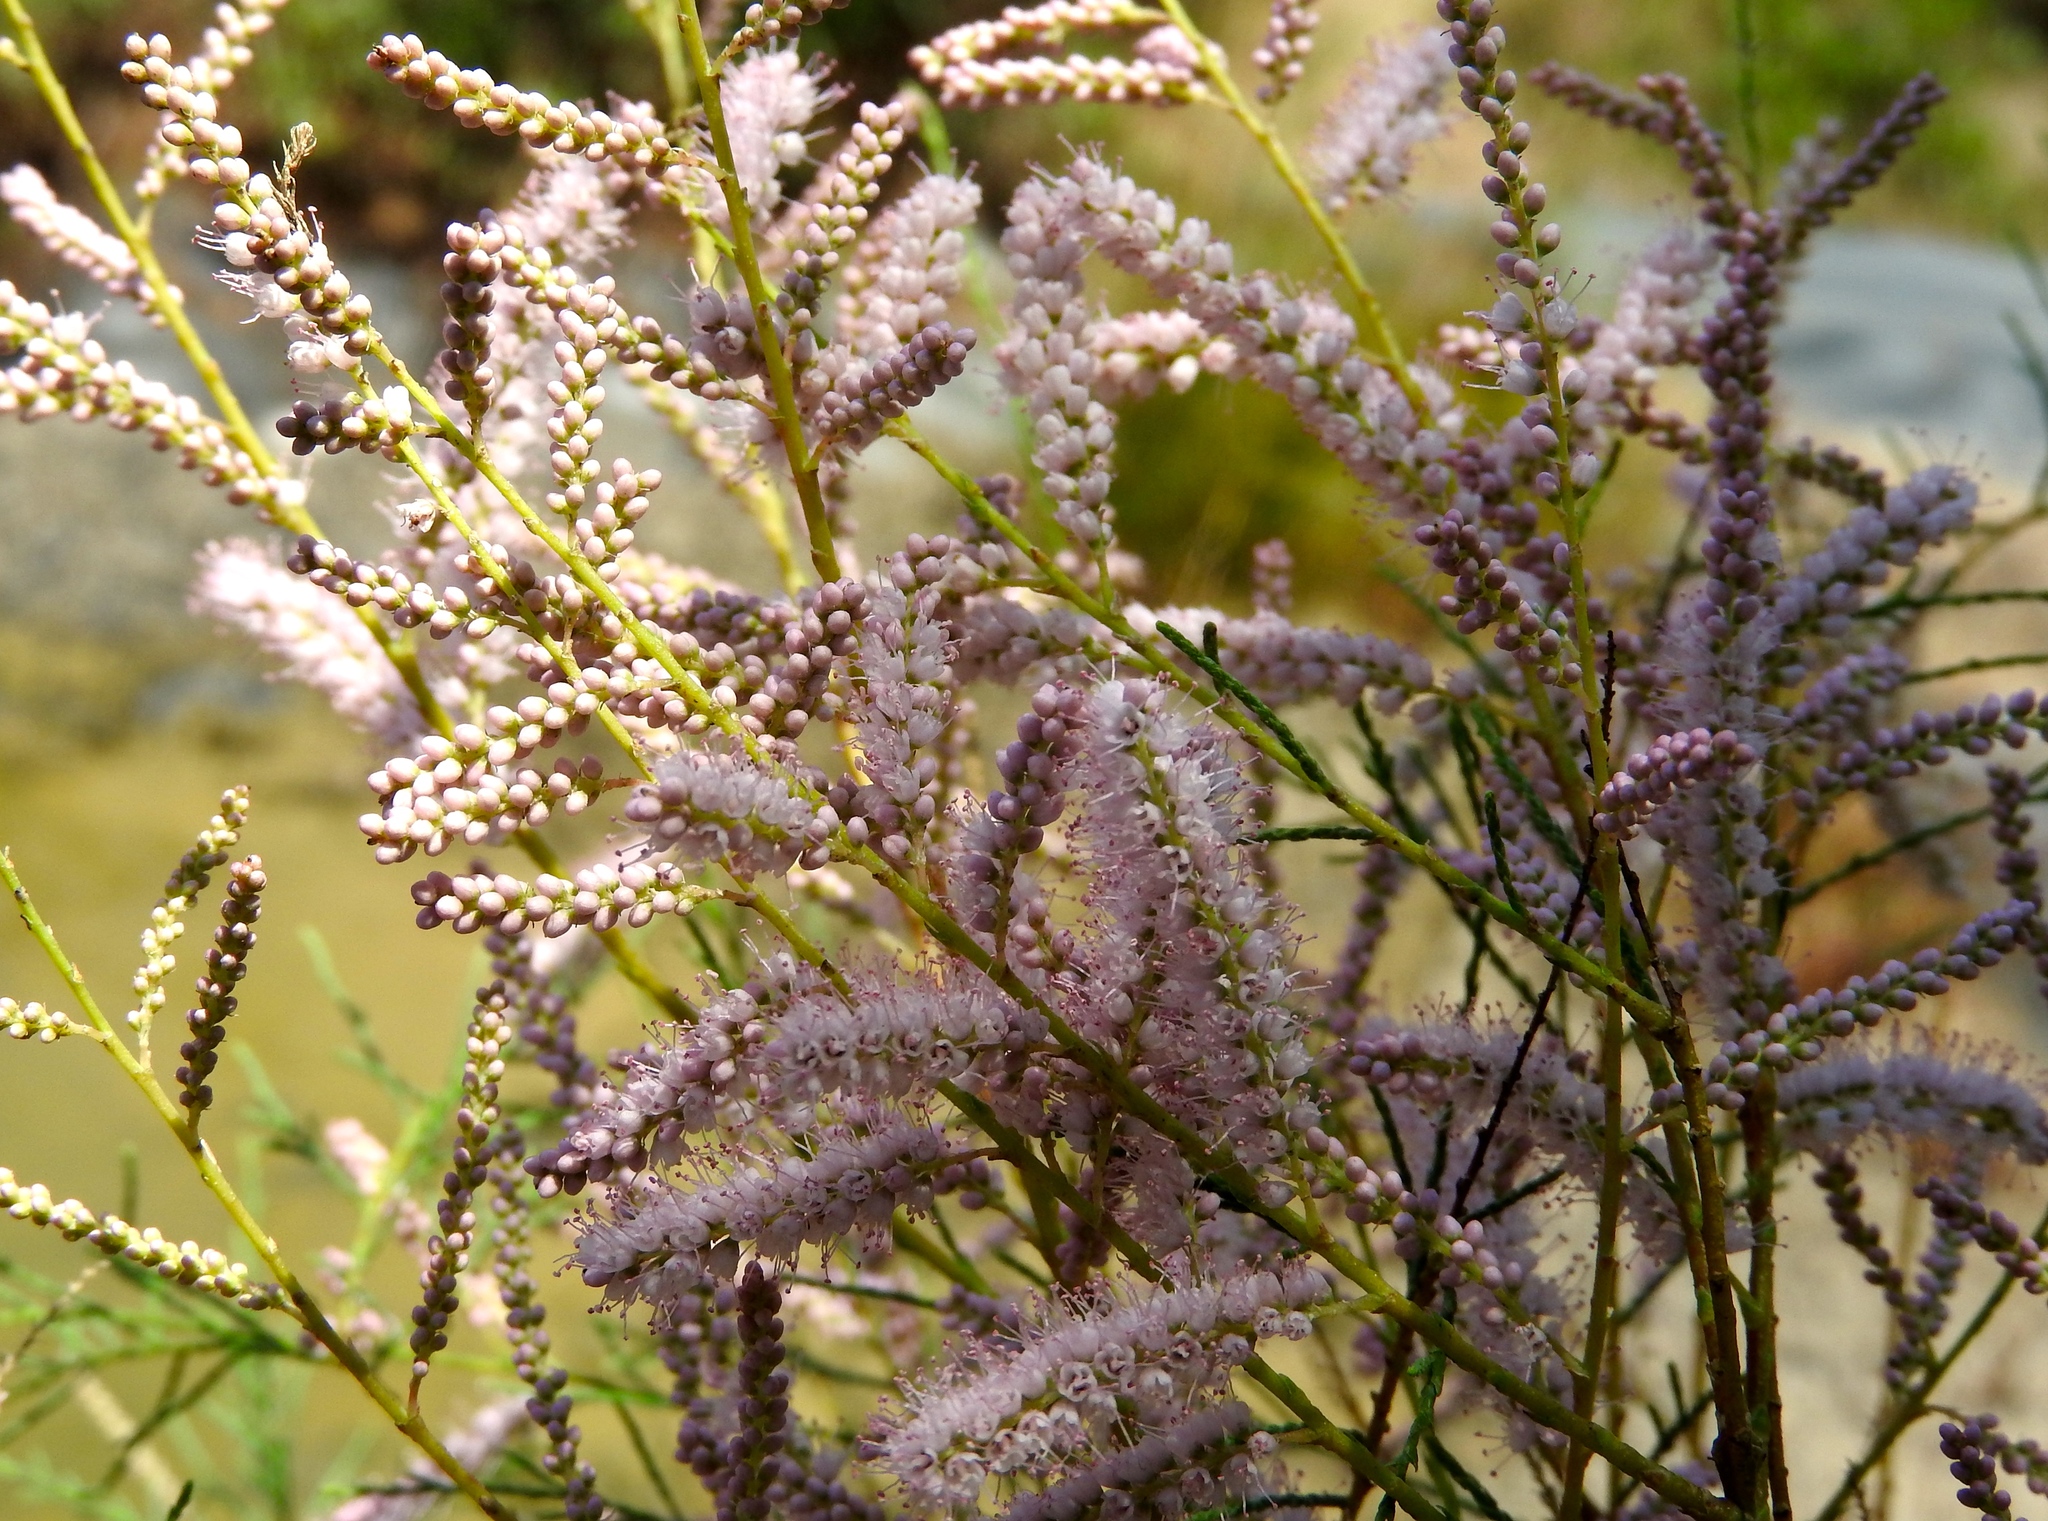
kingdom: Plantae
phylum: Tracheophyta
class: Magnoliopsida
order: Caryophyllales
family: Tamaricaceae
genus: Tamarix
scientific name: Tamarix ramosissima
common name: Pink tamarisk
